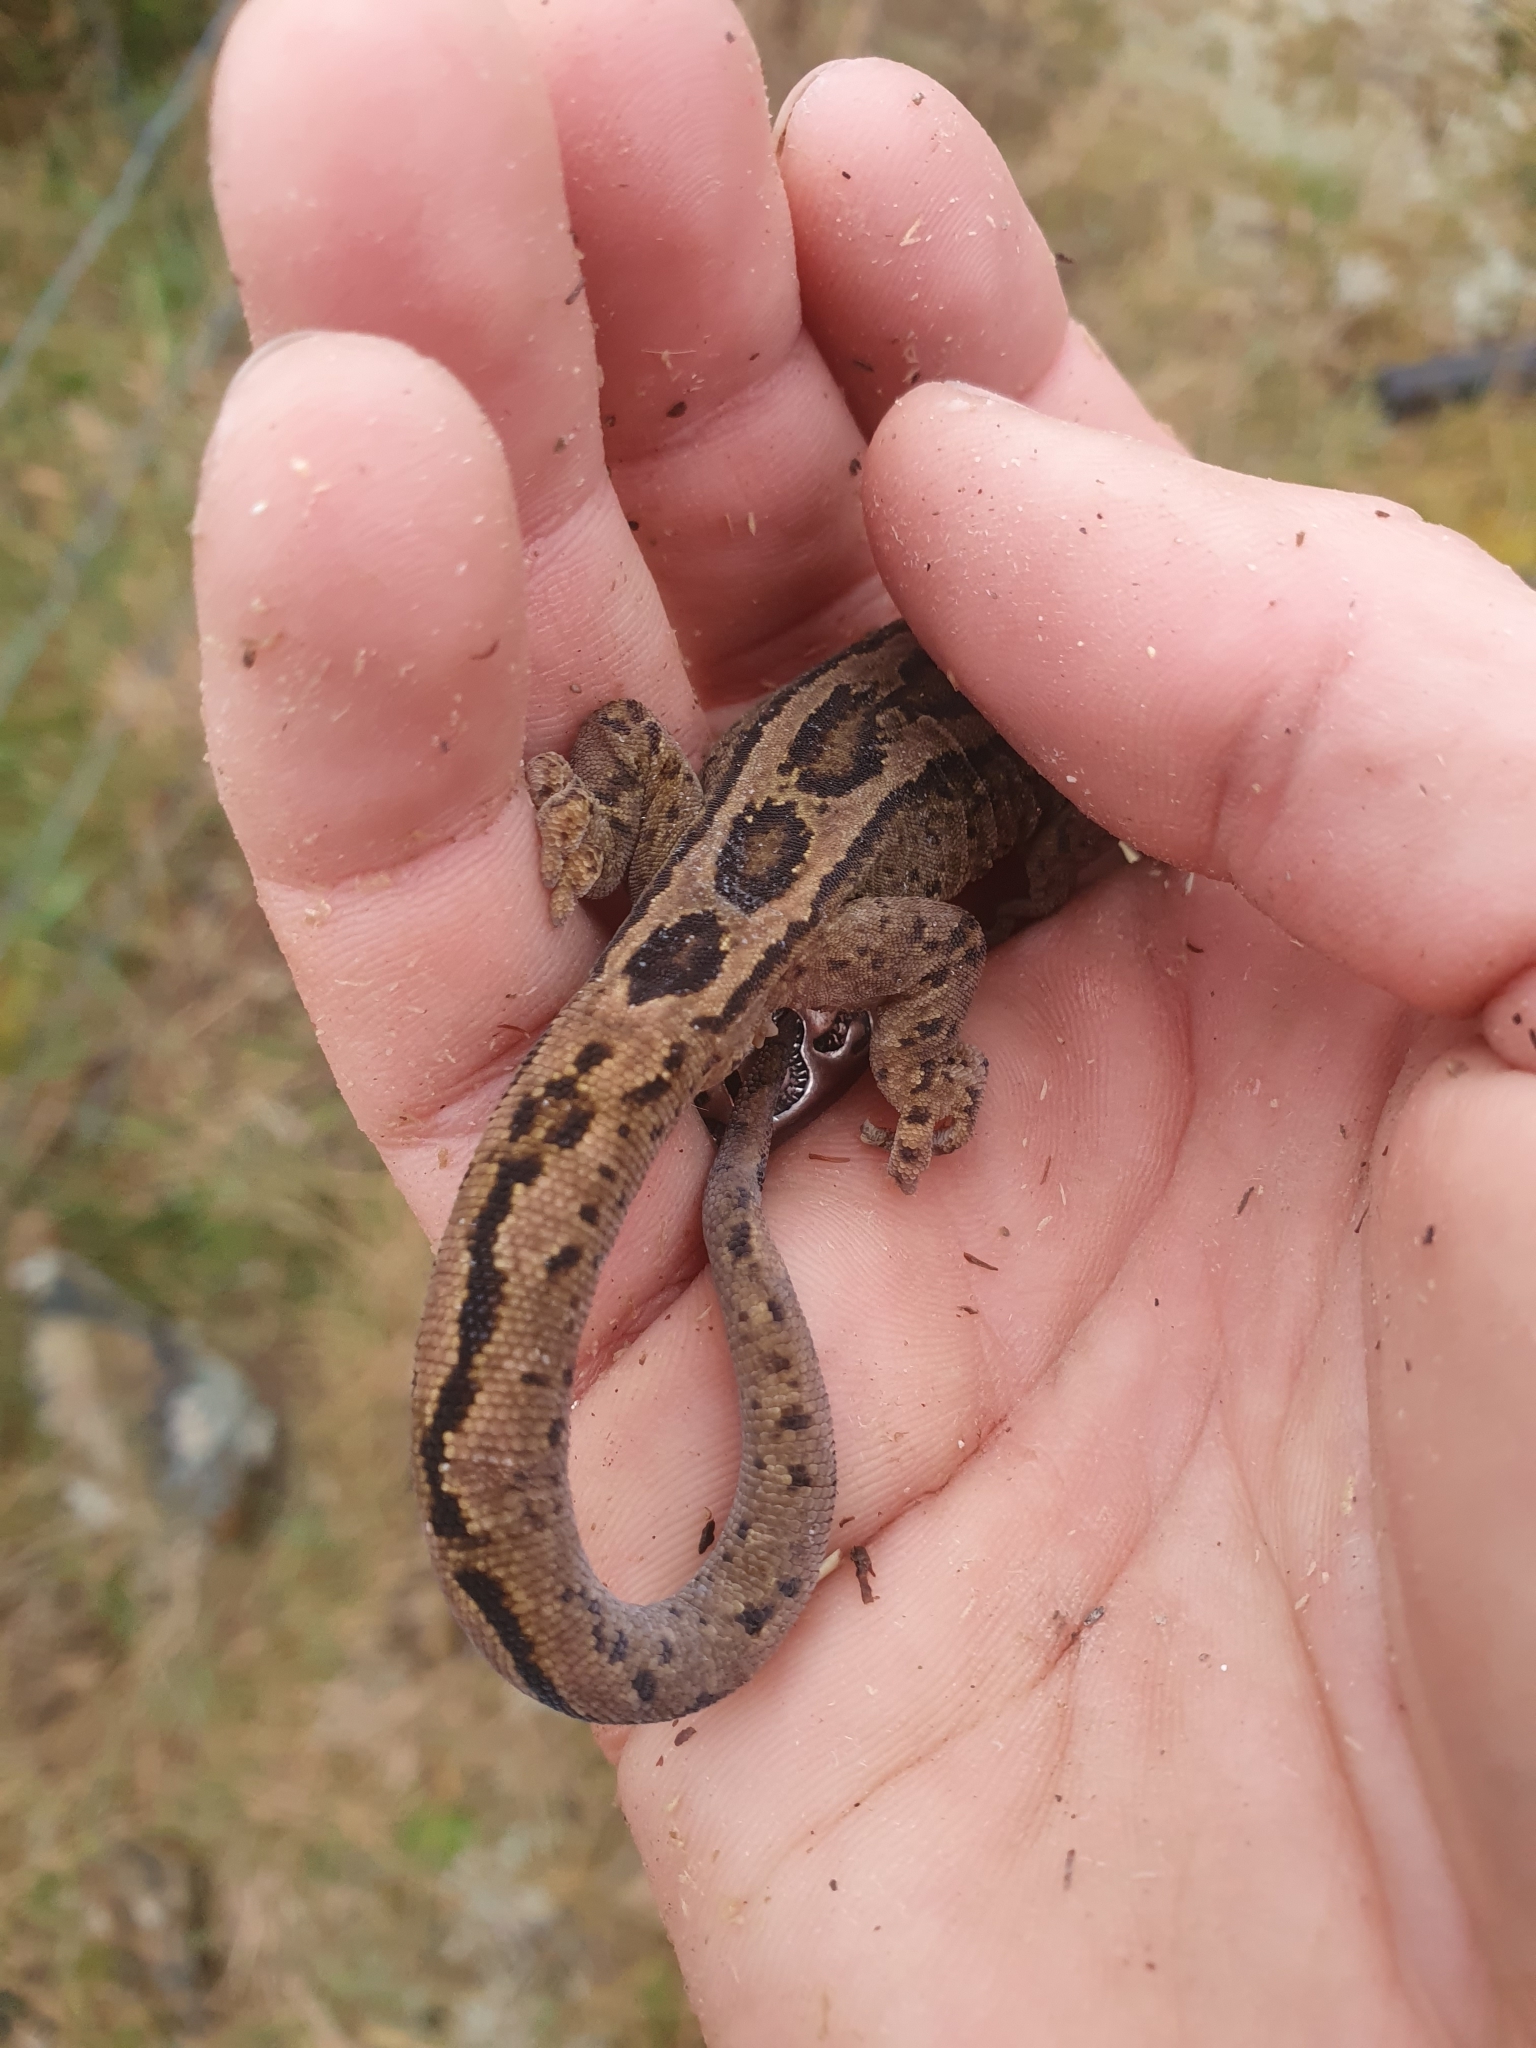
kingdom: Animalia
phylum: Chordata
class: Squamata
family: Diplodactylidae
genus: Woodworthia
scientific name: Woodworthia maculata
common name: Raukawa gecko
